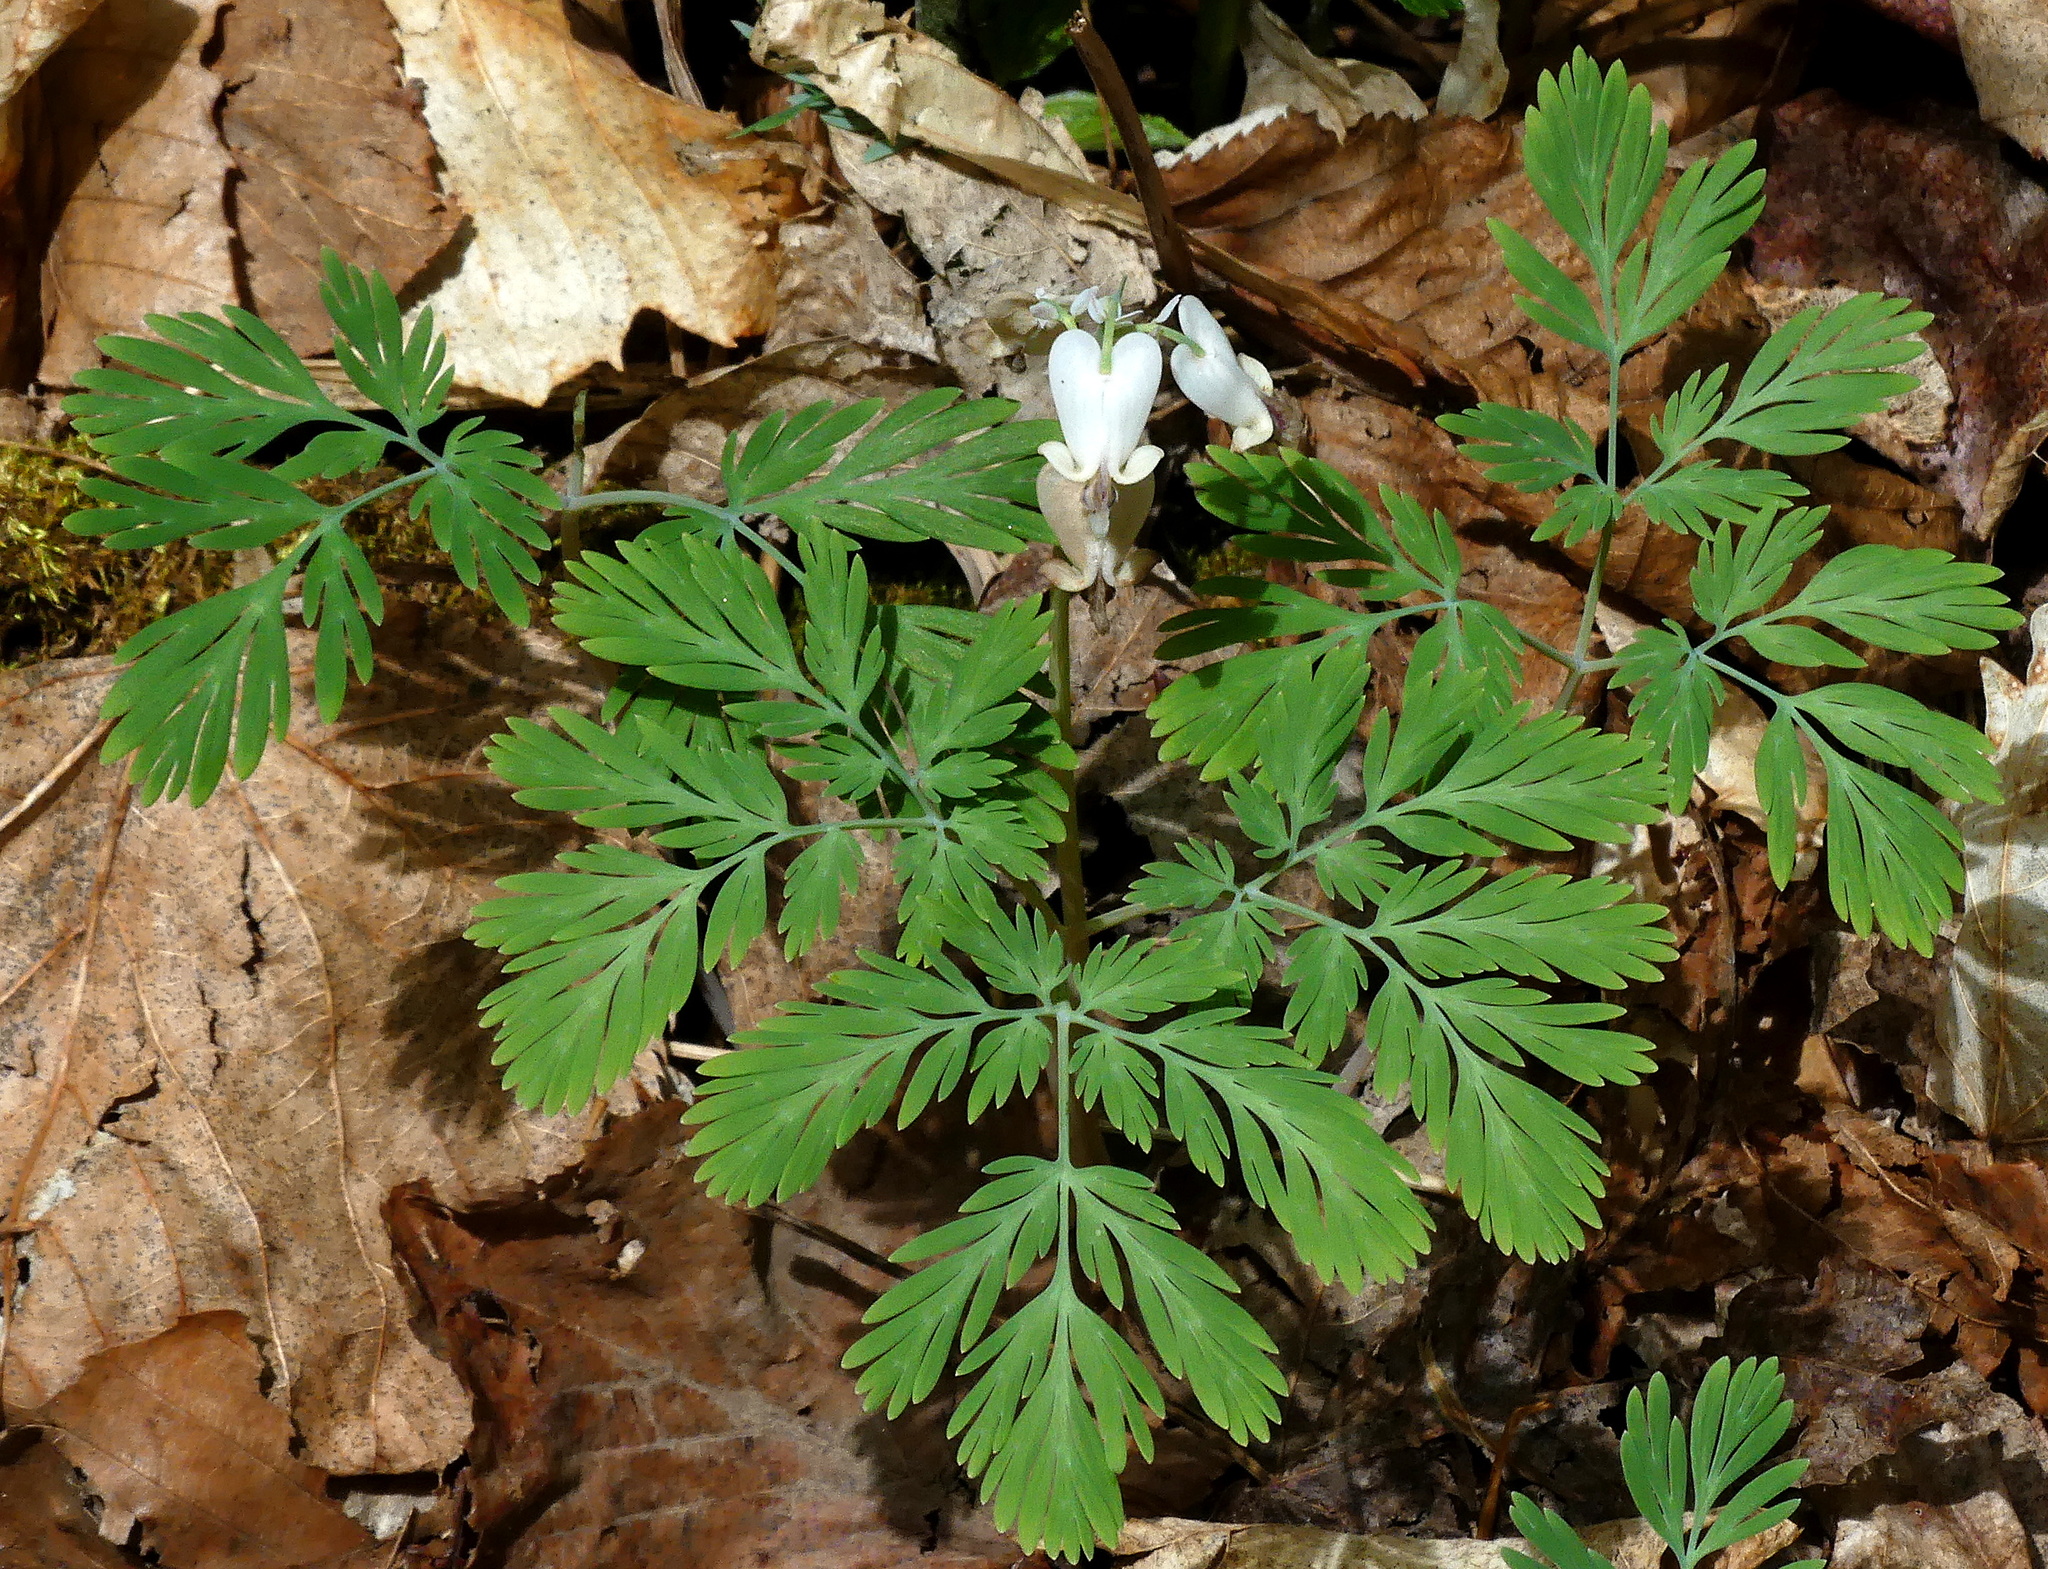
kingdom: Plantae
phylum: Tracheophyta
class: Magnoliopsida
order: Ranunculales
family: Papaveraceae
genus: Dicentra
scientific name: Dicentra canadensis
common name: Squirrel-corn
